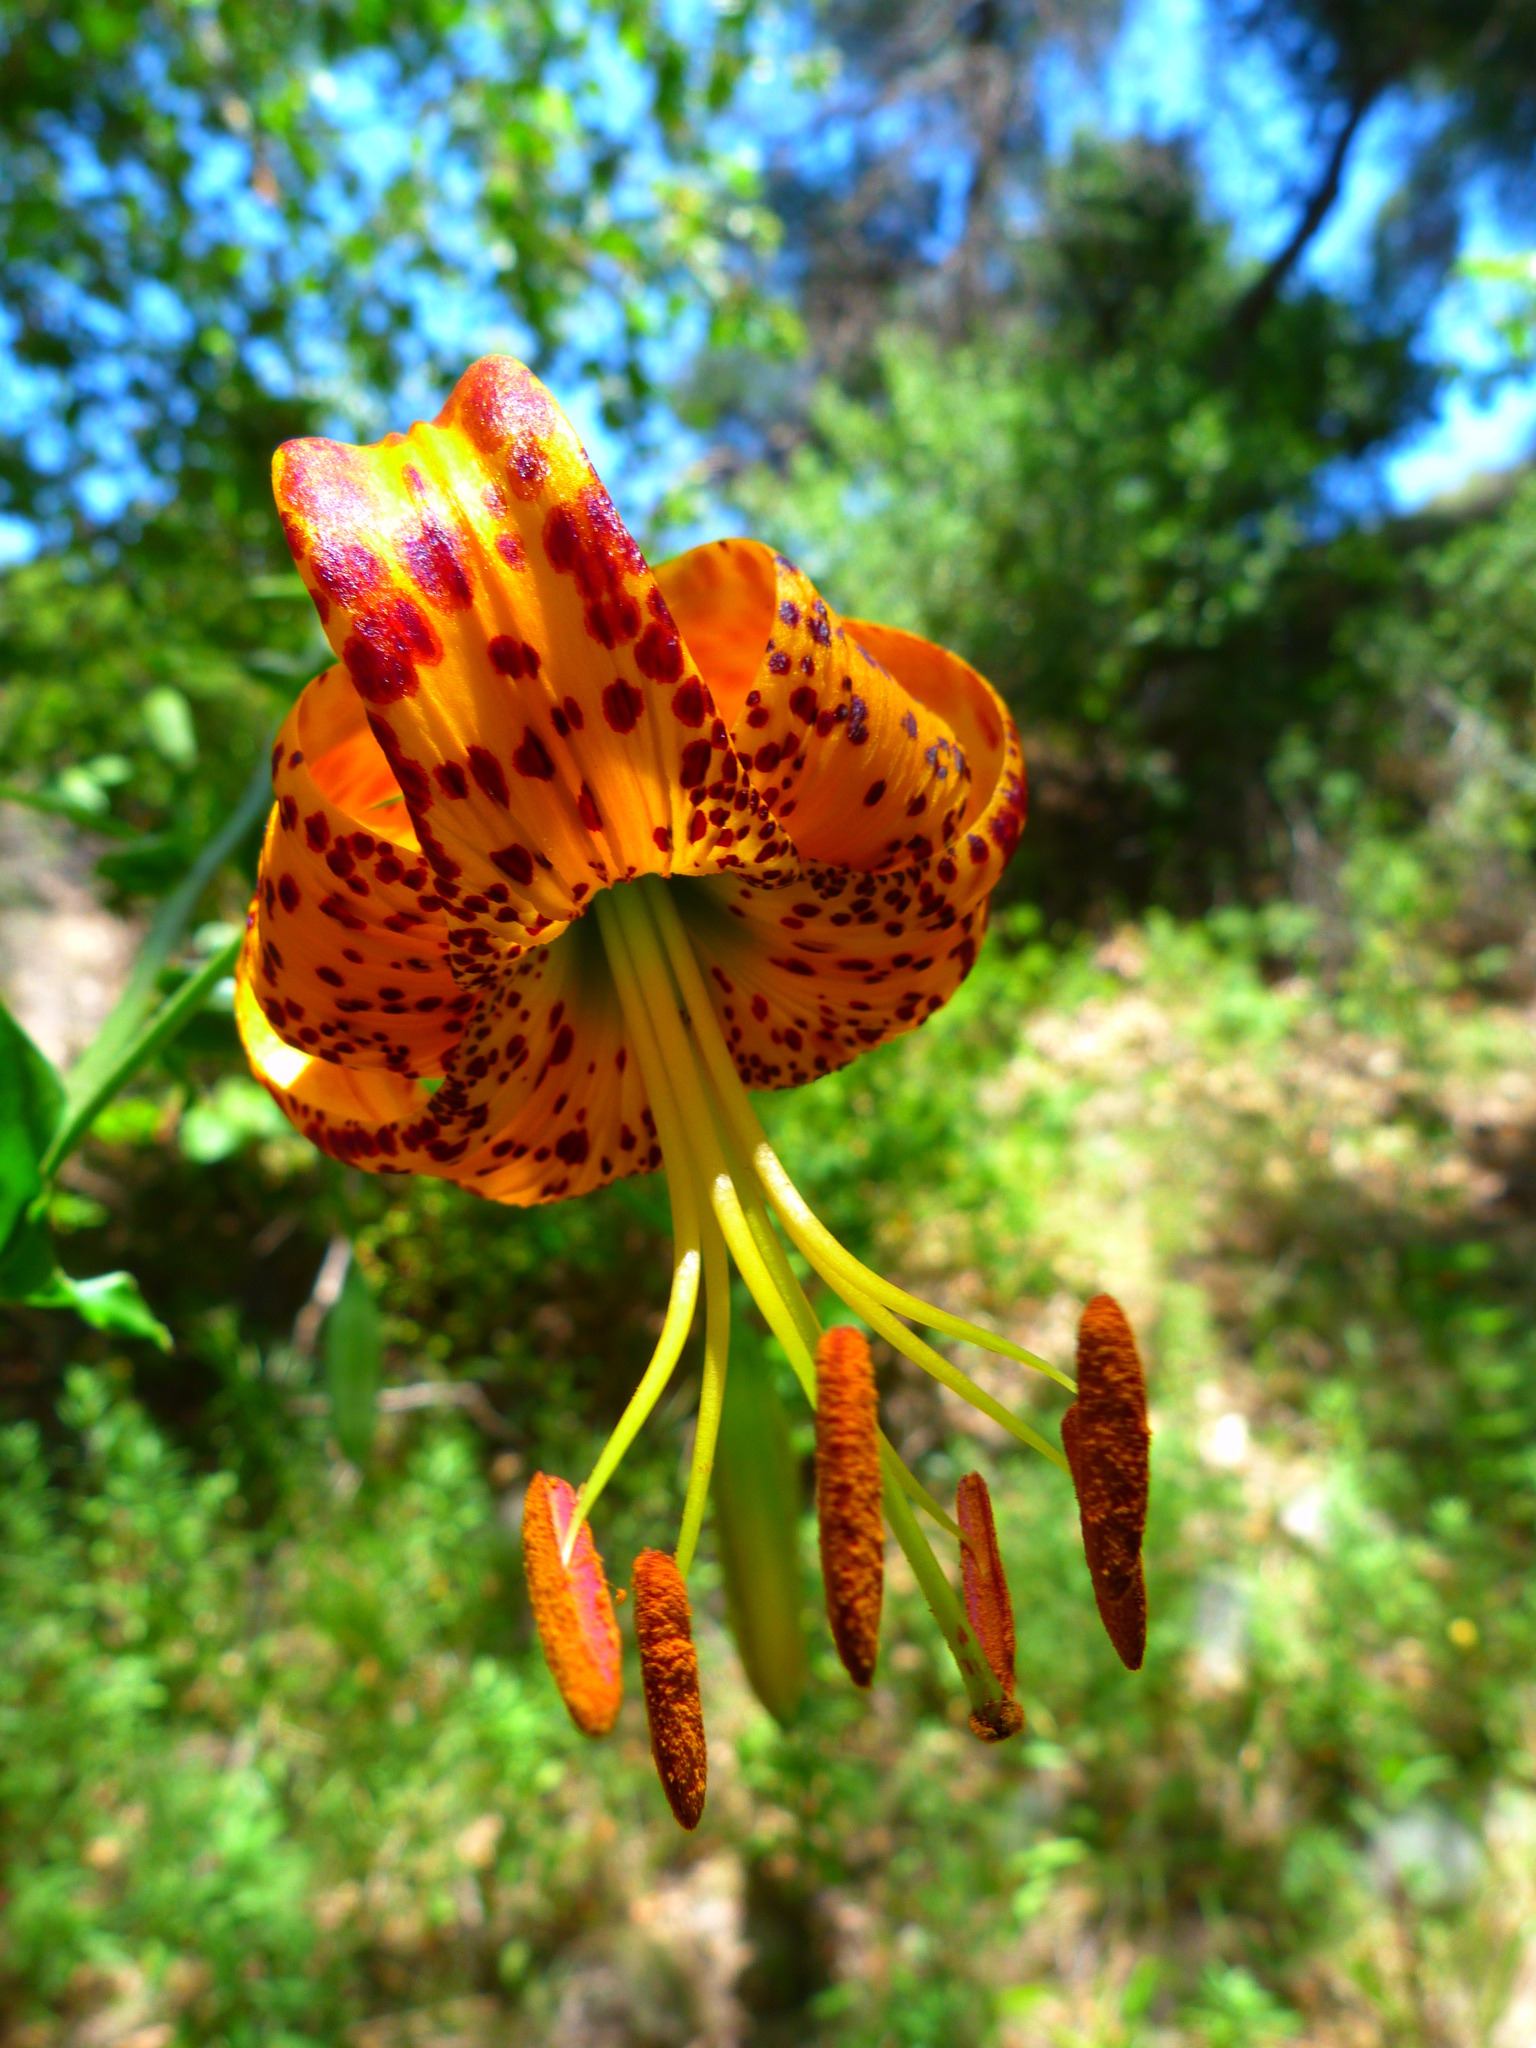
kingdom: Plantae
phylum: Tracheophyta
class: Liliopsida
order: Liliales
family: Liliaceae
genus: Lilium
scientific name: Lilium humboldtii
